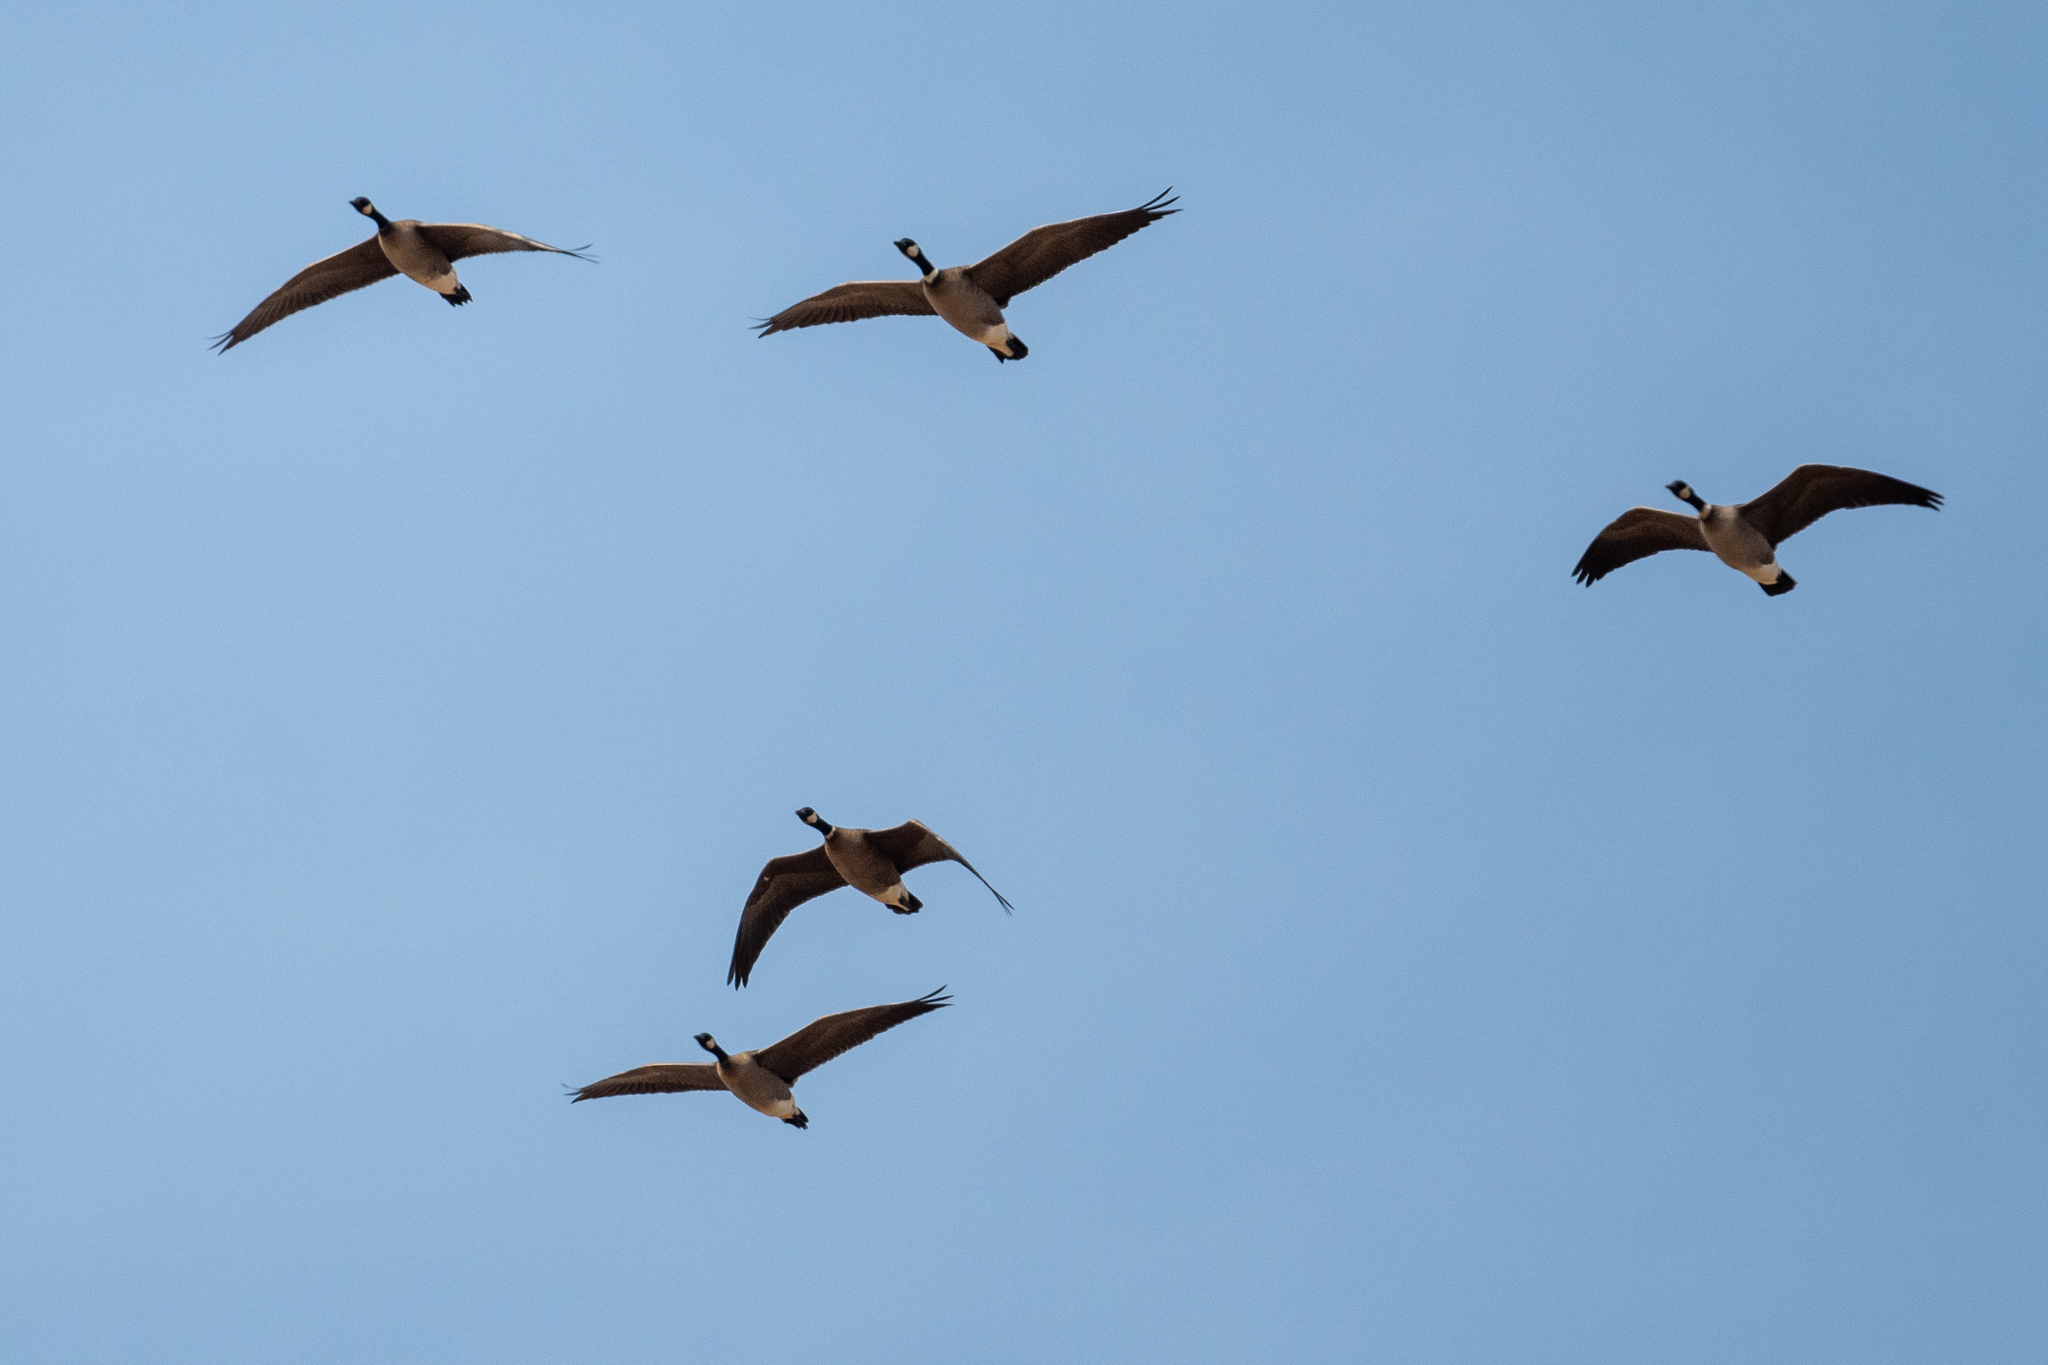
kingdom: Animalia
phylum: Chordata
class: Aves
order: Anseriformes
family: Anatidae
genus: Branta
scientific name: Branta canadensis
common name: Canada goose
